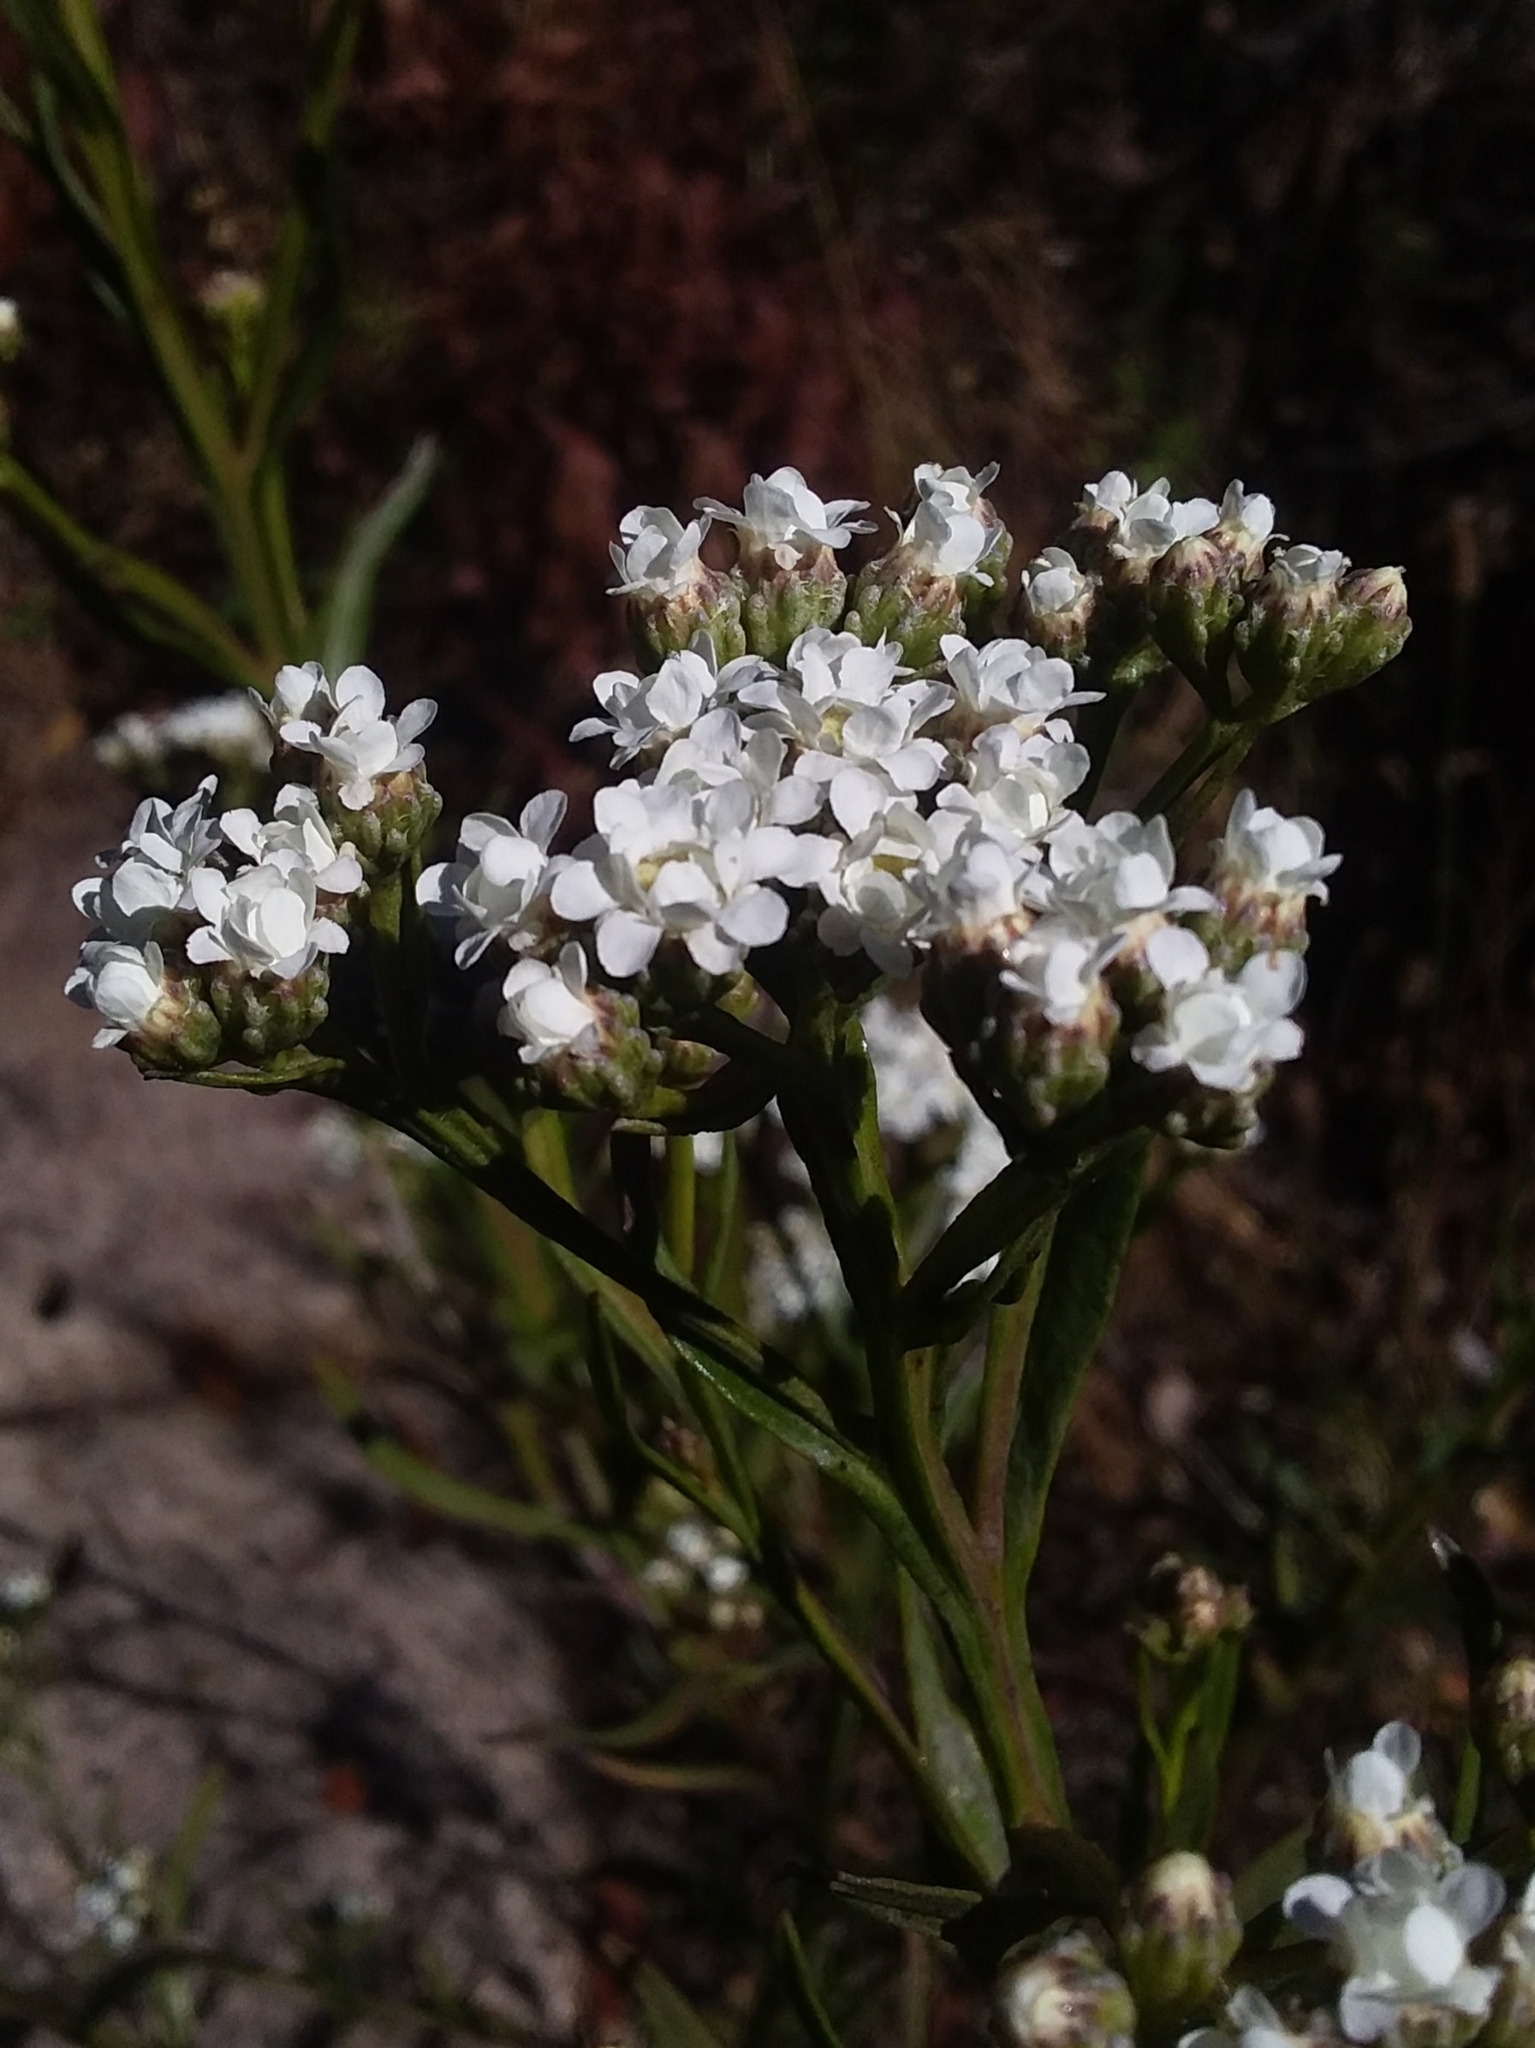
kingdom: Plantae
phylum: Tracheophyta
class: Magnoliopsida
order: Asterales
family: Asteraceae
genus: Ixodia
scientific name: Ixodia achillaeoides
